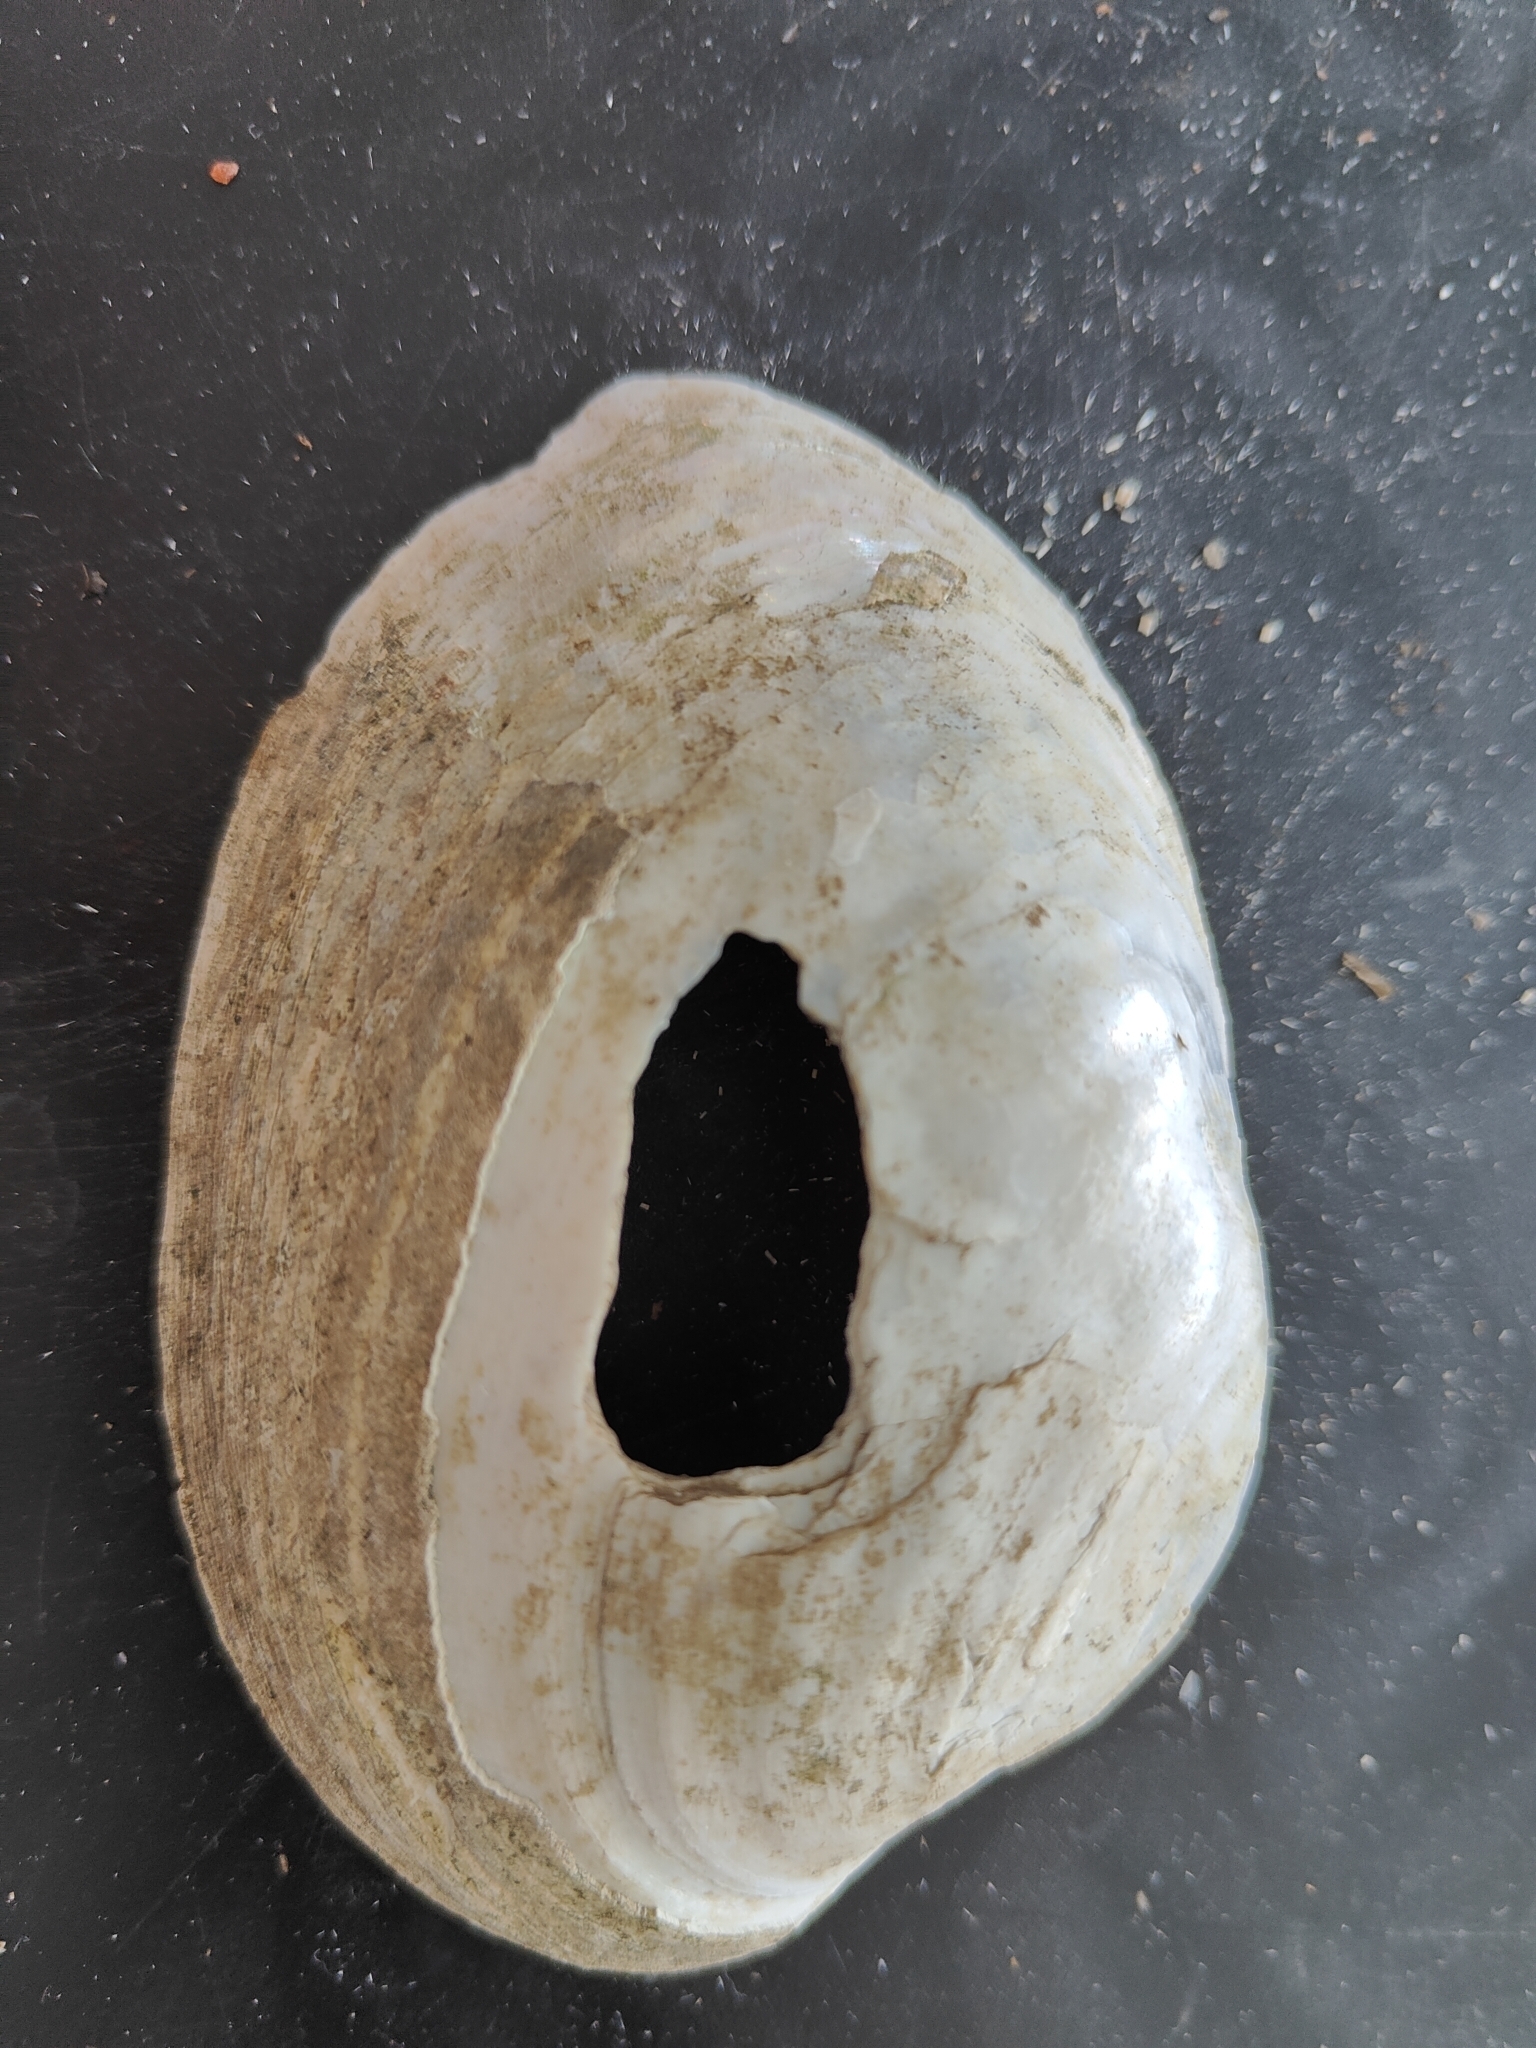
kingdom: Animalia
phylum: Mollusca
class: Bivalvia
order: Unionida
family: Unionidae
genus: Lampsilis
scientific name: Lampsilis cardium
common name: Plain pocketbook
